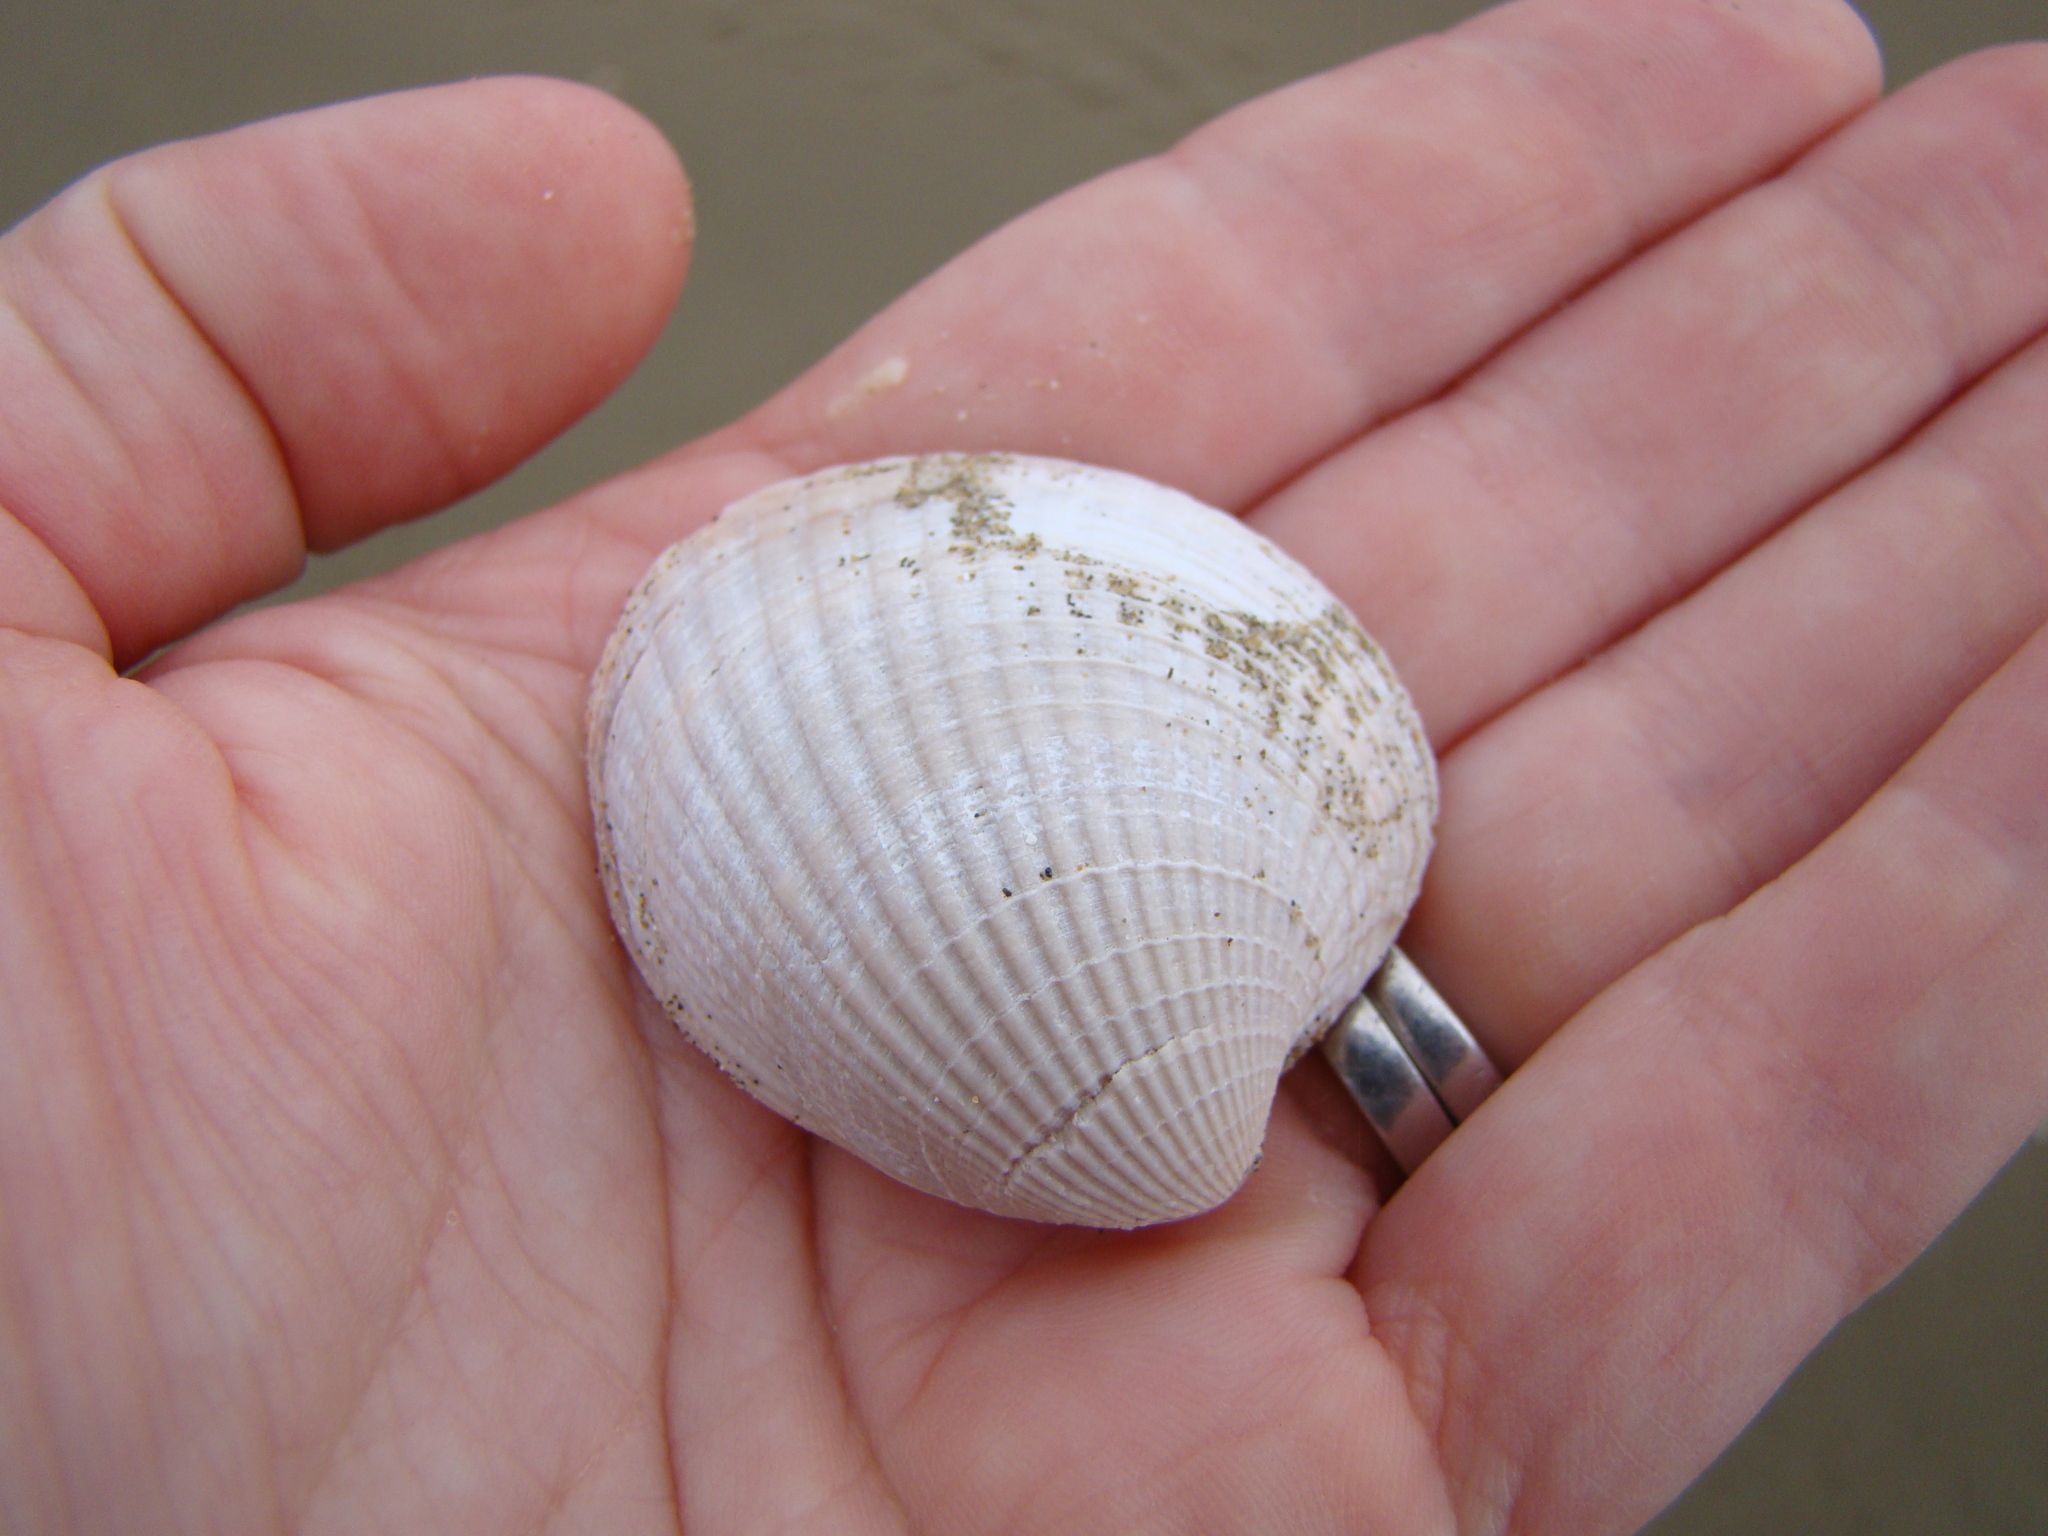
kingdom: Animalia
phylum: Mollusca
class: Bivalvia
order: Venerida
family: Veneridae
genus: Austrovenus
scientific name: Austrovenus stutchburyi
